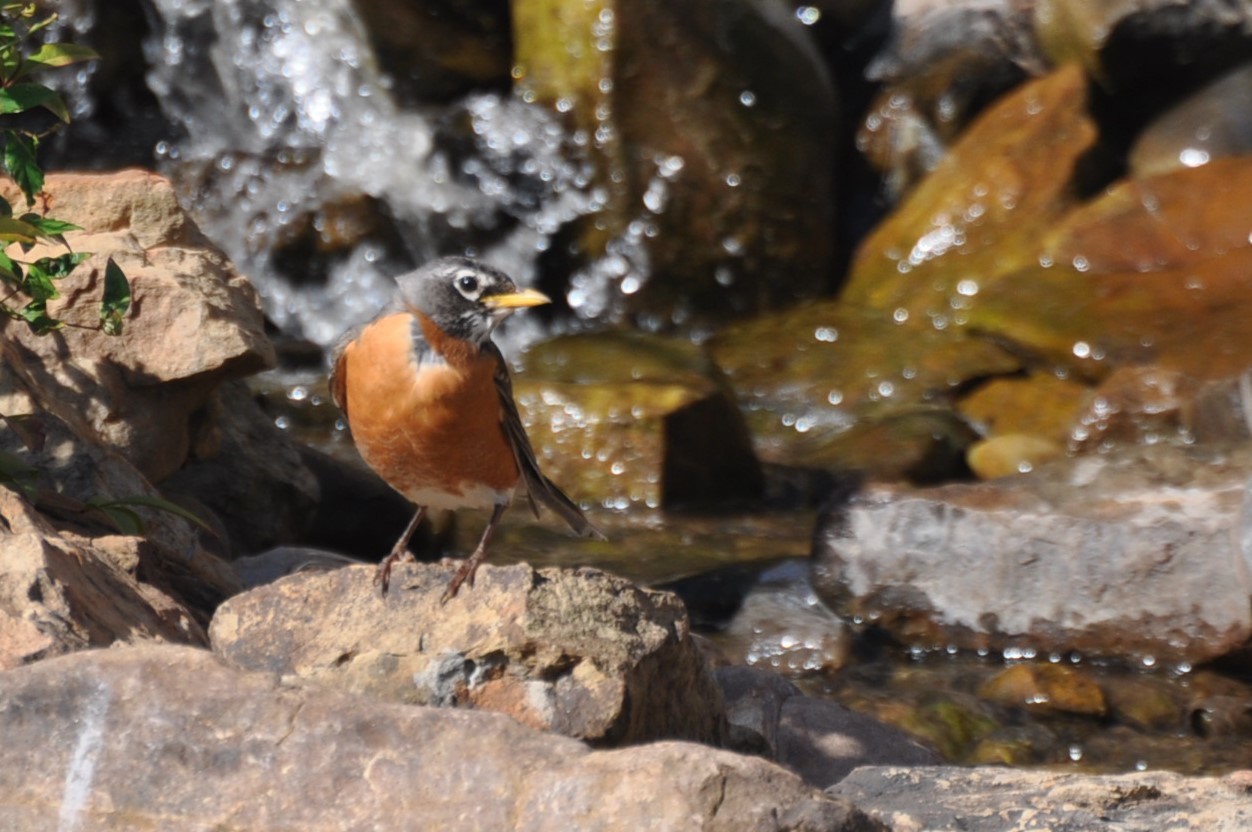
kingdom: Animalia
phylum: Chordata
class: Aves
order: Passeriformes
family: Turdidae
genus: Turdus
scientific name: Turdus migratorius
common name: American robin
